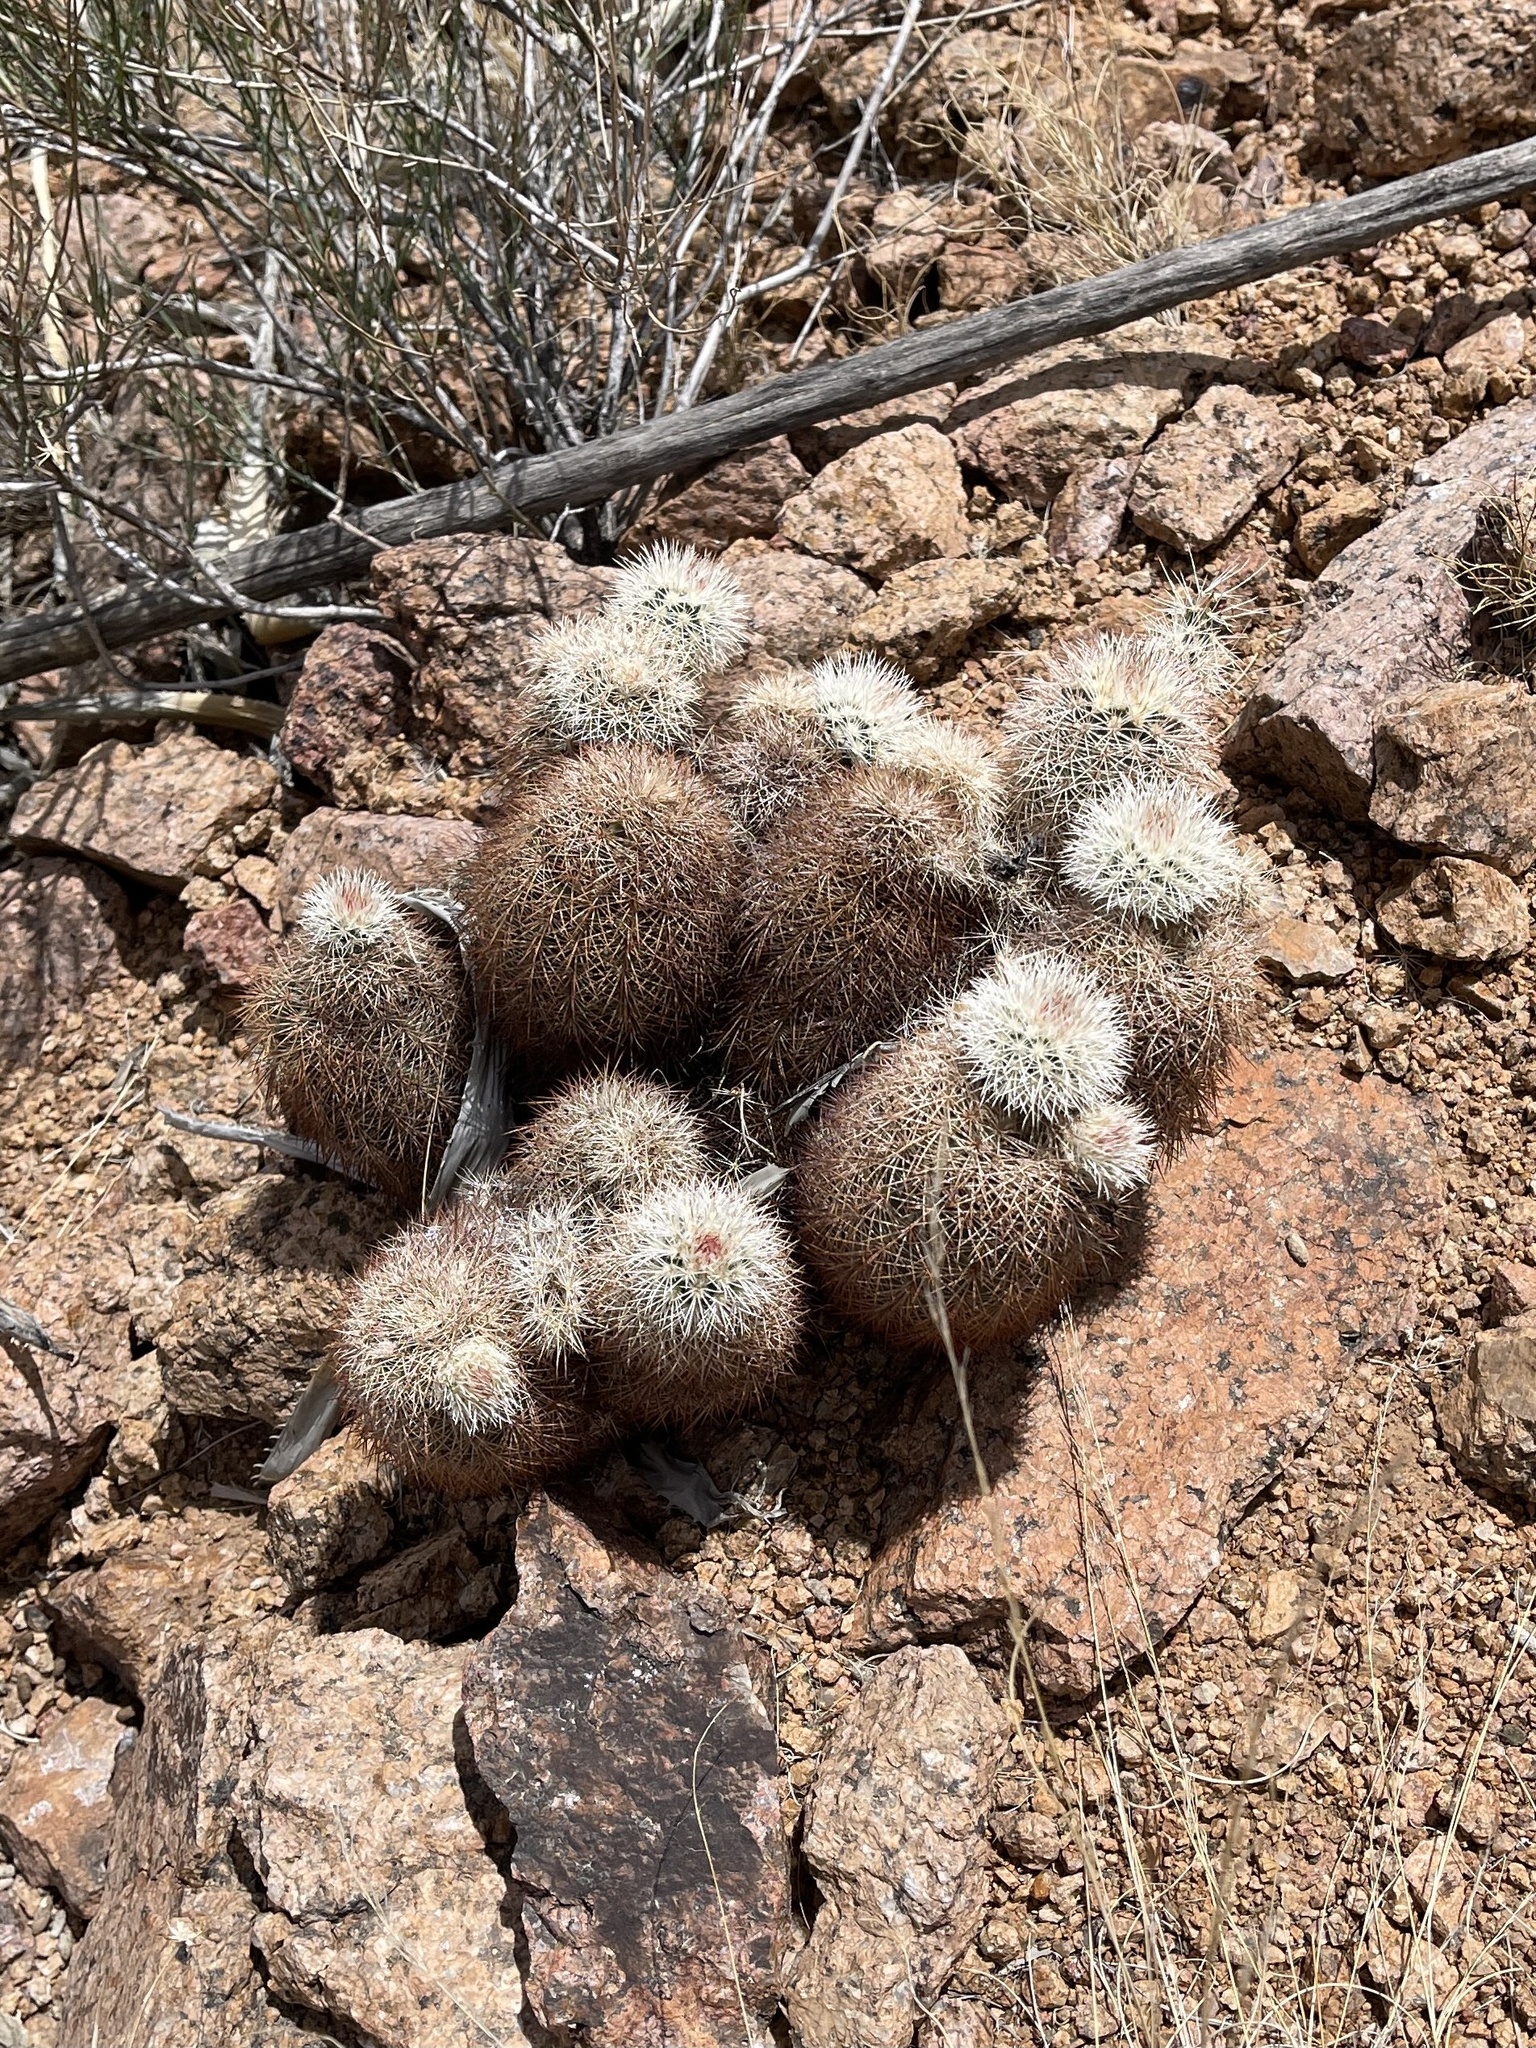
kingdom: Plantae
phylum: Tracheophyta
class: Magnoliopsida
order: Caryophyllales
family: Cactaceae
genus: Echinocereus
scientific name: Echinocereus dasyacanthus
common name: Spiny hedgehog cactus
